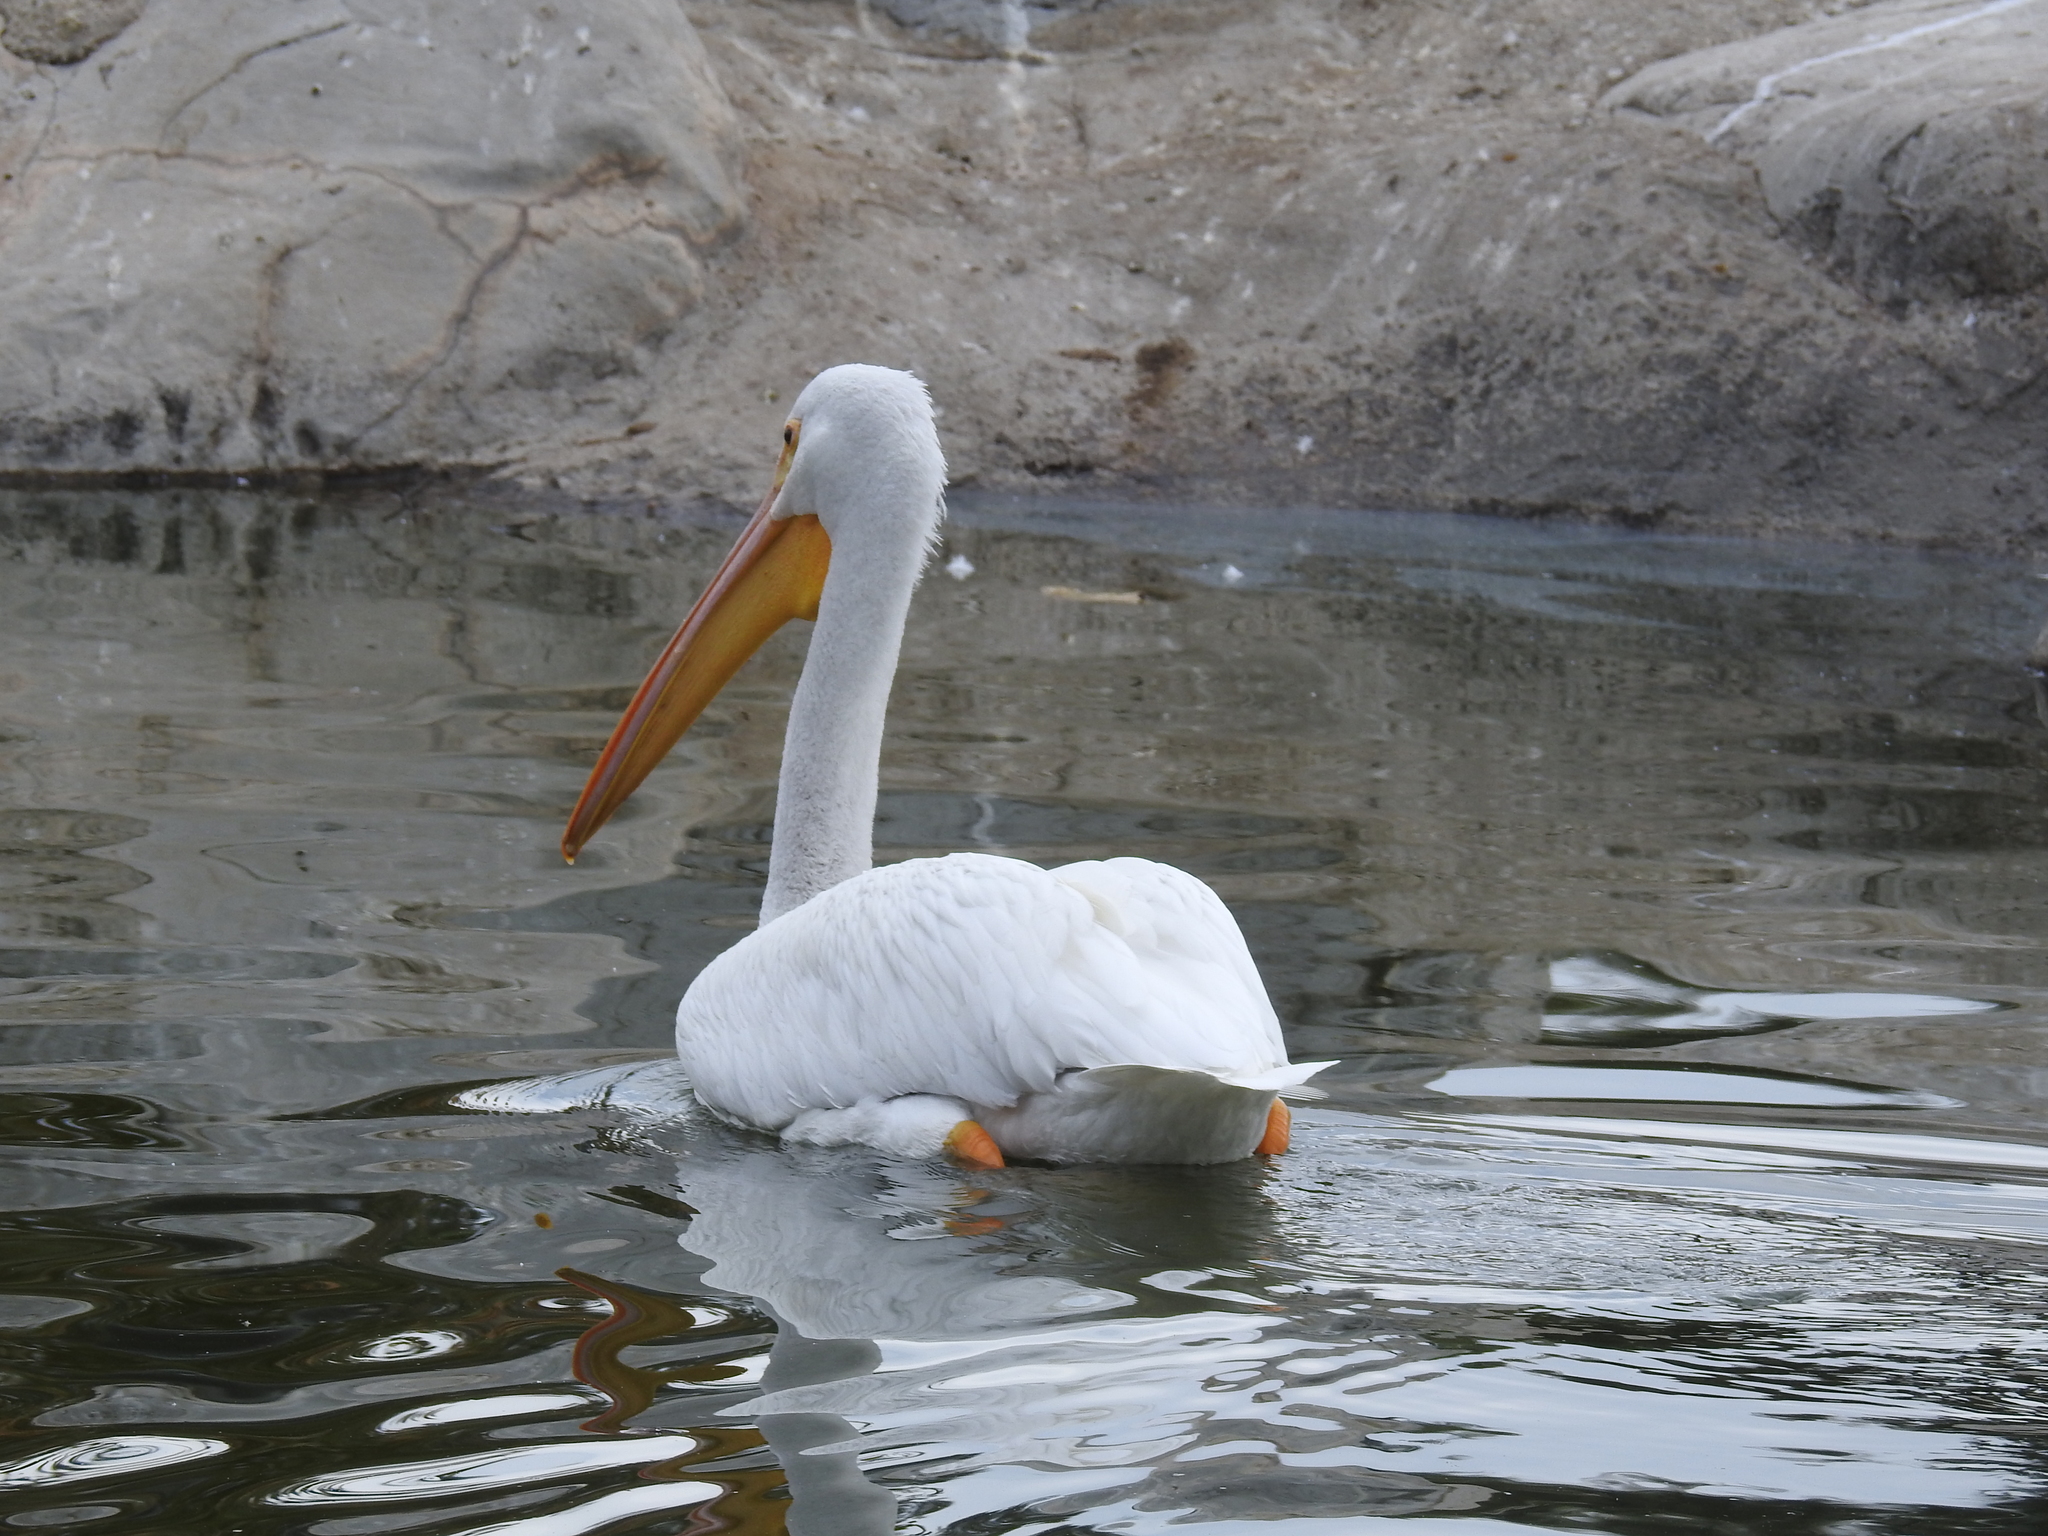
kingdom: Animalia
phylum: Chordata
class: Aves
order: Pelecaniformes
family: Pelecanidae
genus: Pelecanus
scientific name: Pelecanus erythrorhynchos
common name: American white pelican
